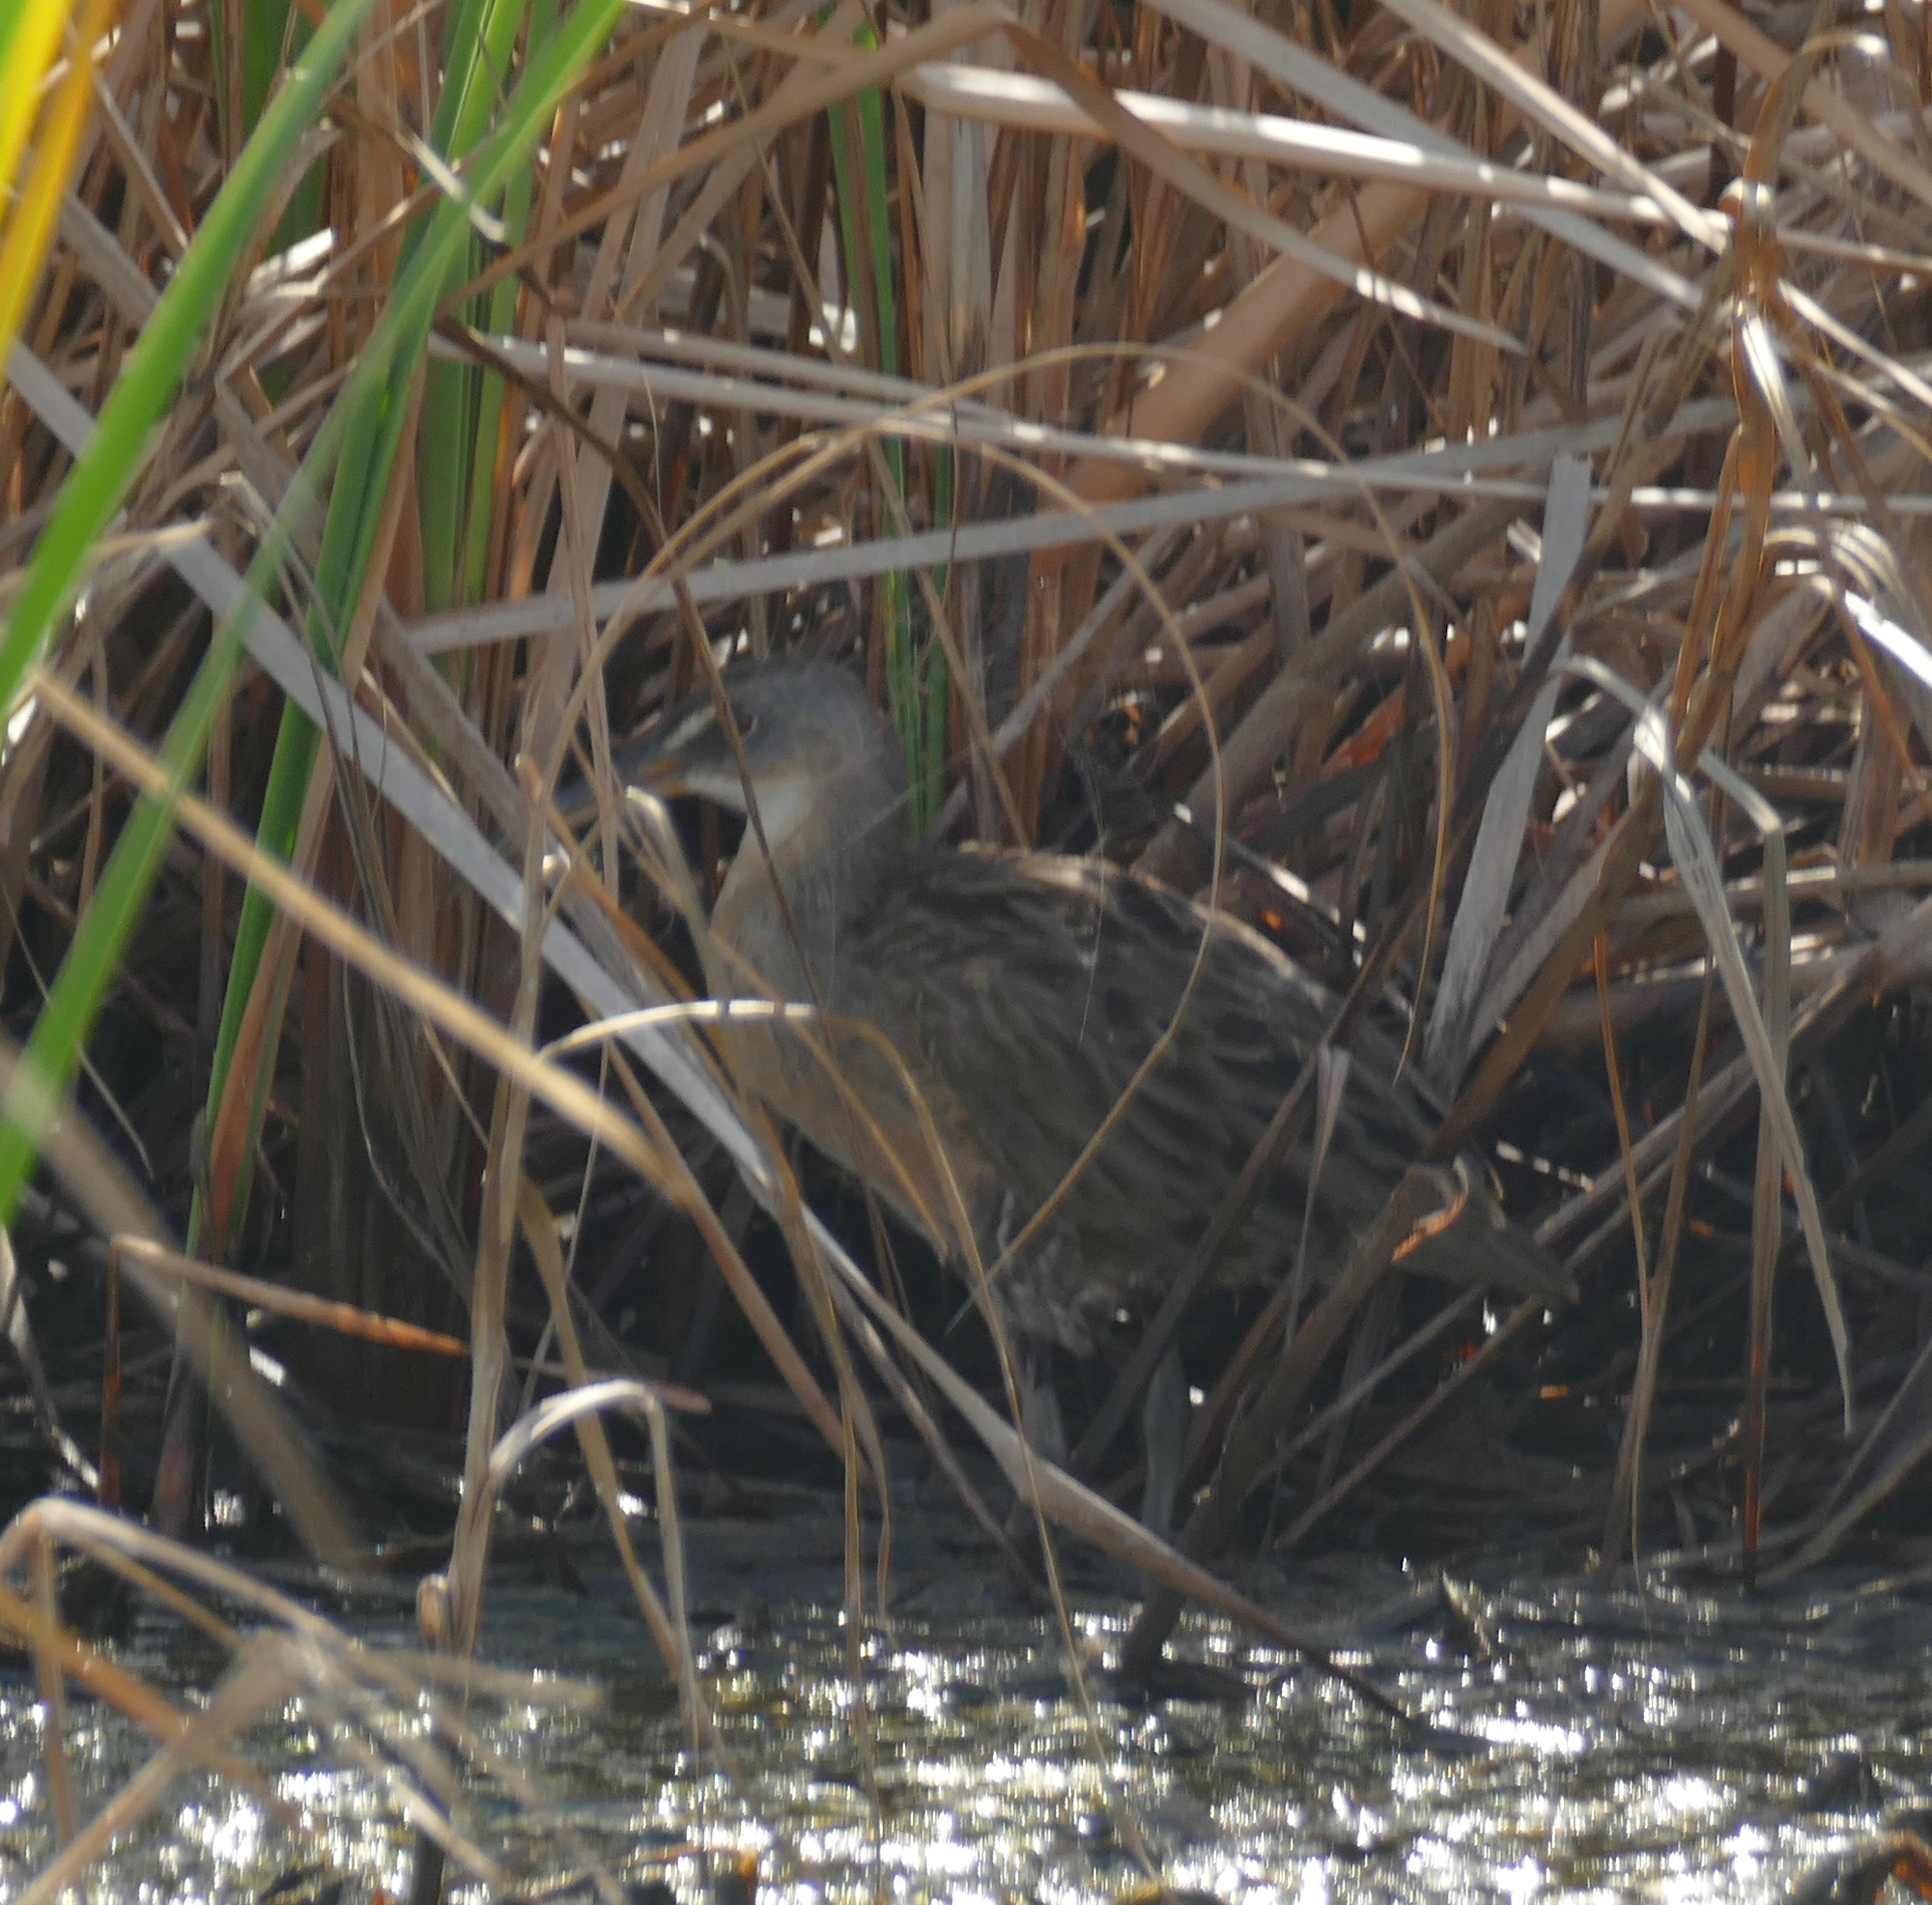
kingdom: Animalia
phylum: Chordata
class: Aves
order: Gruiformes
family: Rallidae
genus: Rallus
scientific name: Rallus crepitans
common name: Clapper rail
